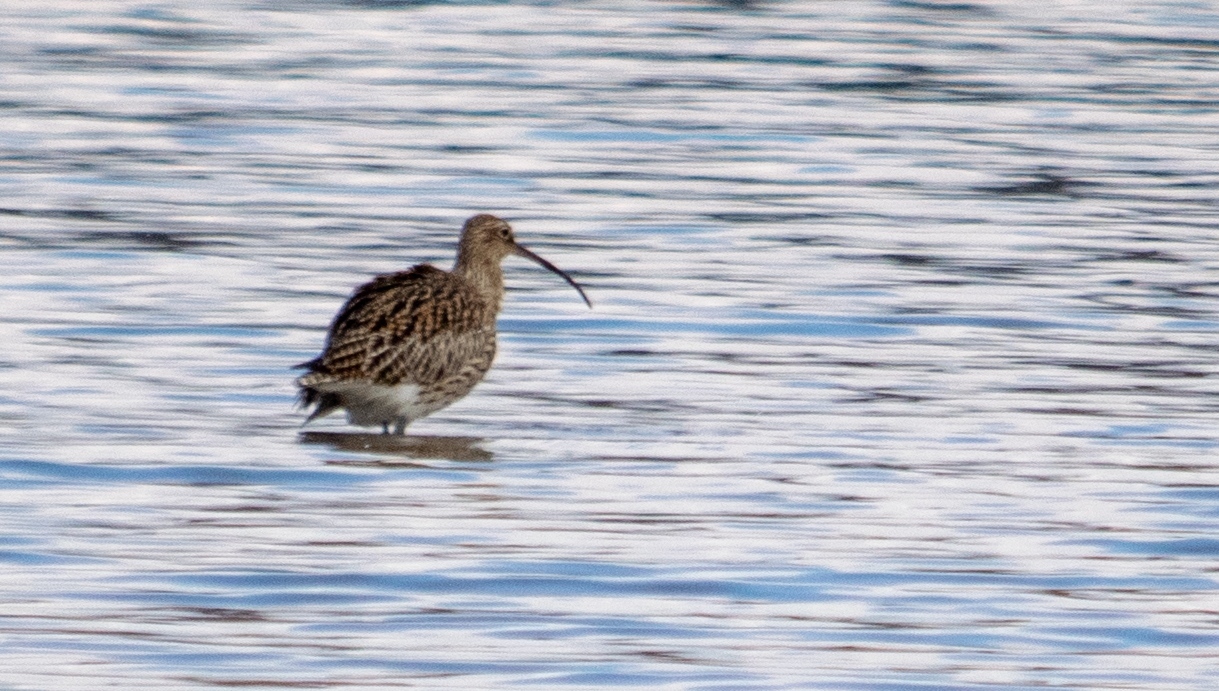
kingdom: Animalia
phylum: Chordata
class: Aves
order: Charadriiformes
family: Scolopacidae
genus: Numenius
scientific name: Numenius arquata
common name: Eurasian curlew
